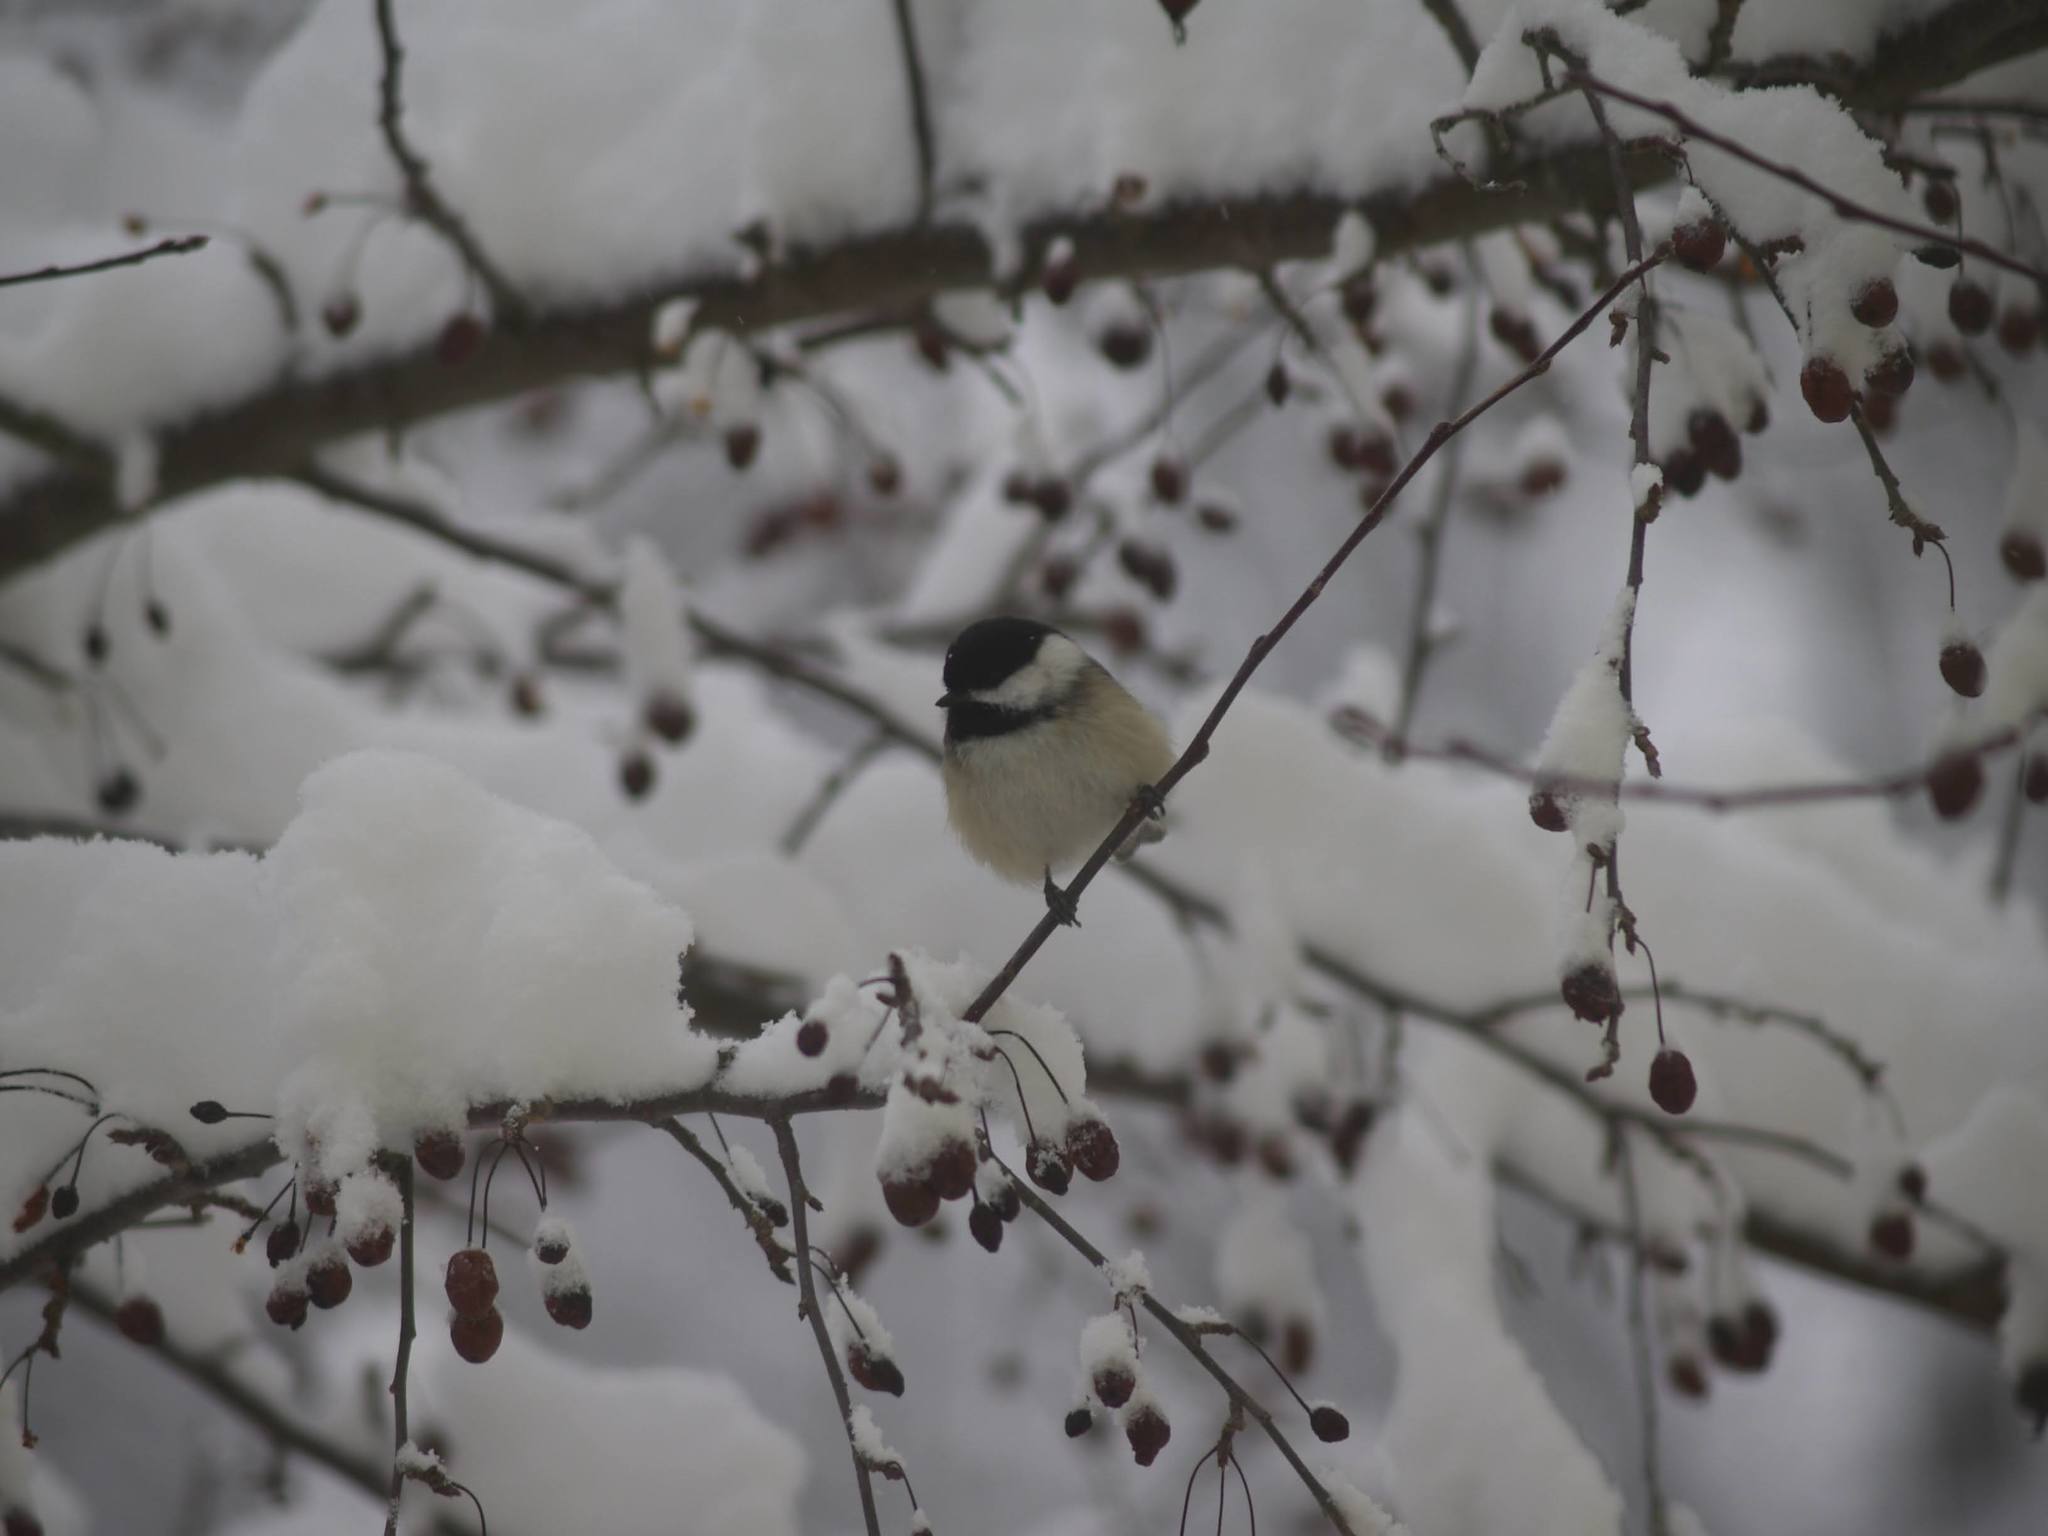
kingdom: Animalia
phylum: Chordata
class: Aves
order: Passeriformes
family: Paridae
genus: Poecile
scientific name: Poecile atricapillus
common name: Black-capped chickadee
